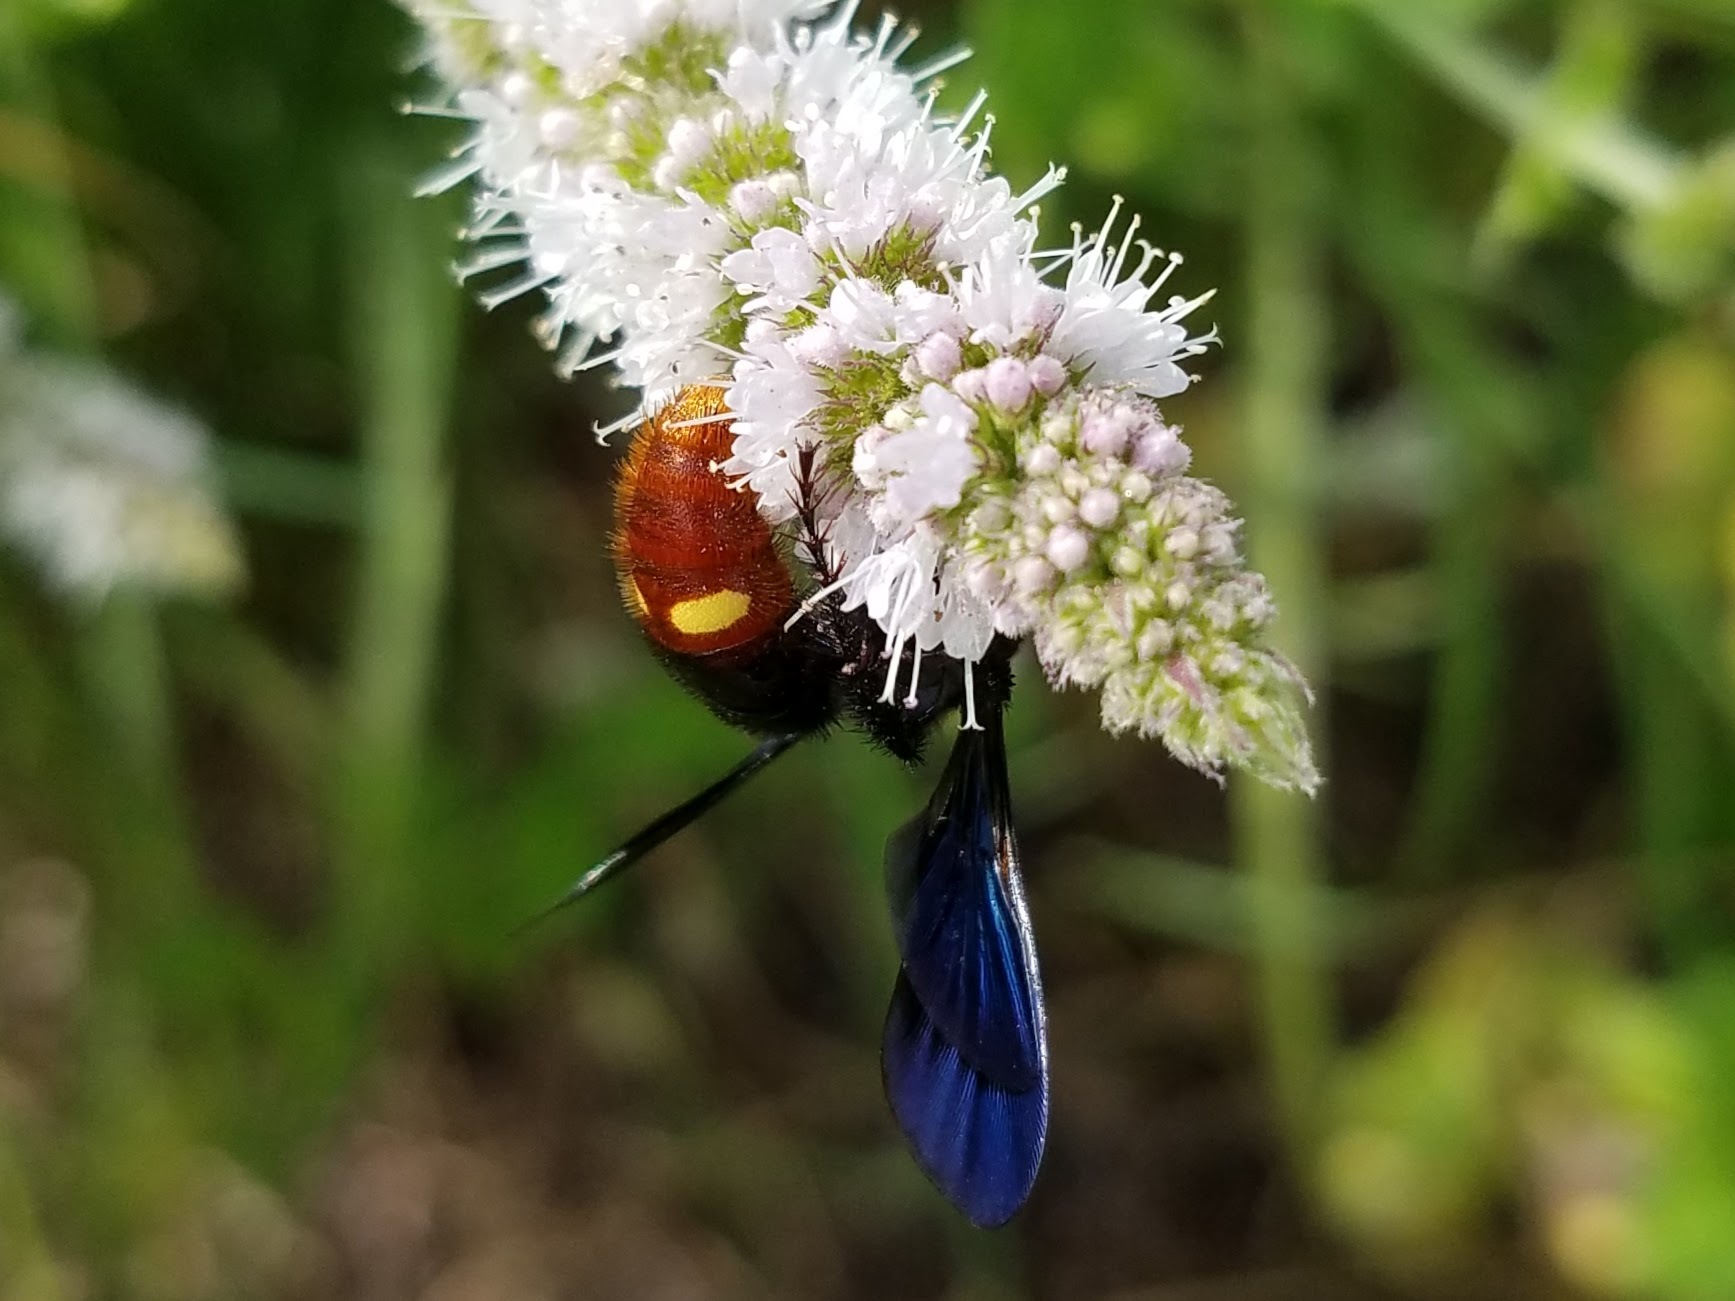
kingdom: Animalia
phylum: Arthropoda
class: Insecta
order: Hymenoptera
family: Scoliidae
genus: Scolia
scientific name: Scolia dubia
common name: Blue-winged scoliid wasp
